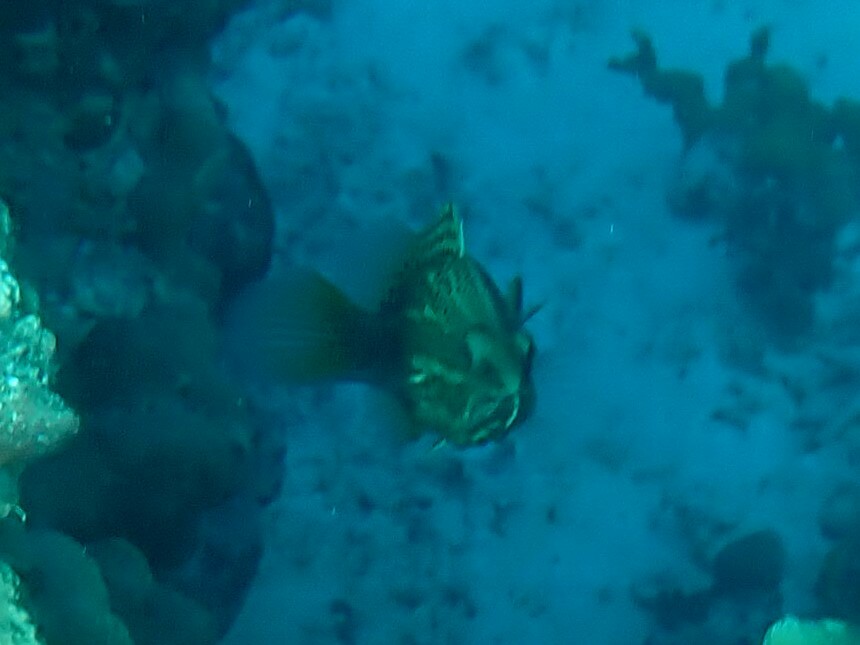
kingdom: Animalia
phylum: Chordata
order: Perciformes
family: Serranidae
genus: Anyperodon
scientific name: Anyperodon leucogrammicus
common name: Slender grouper
